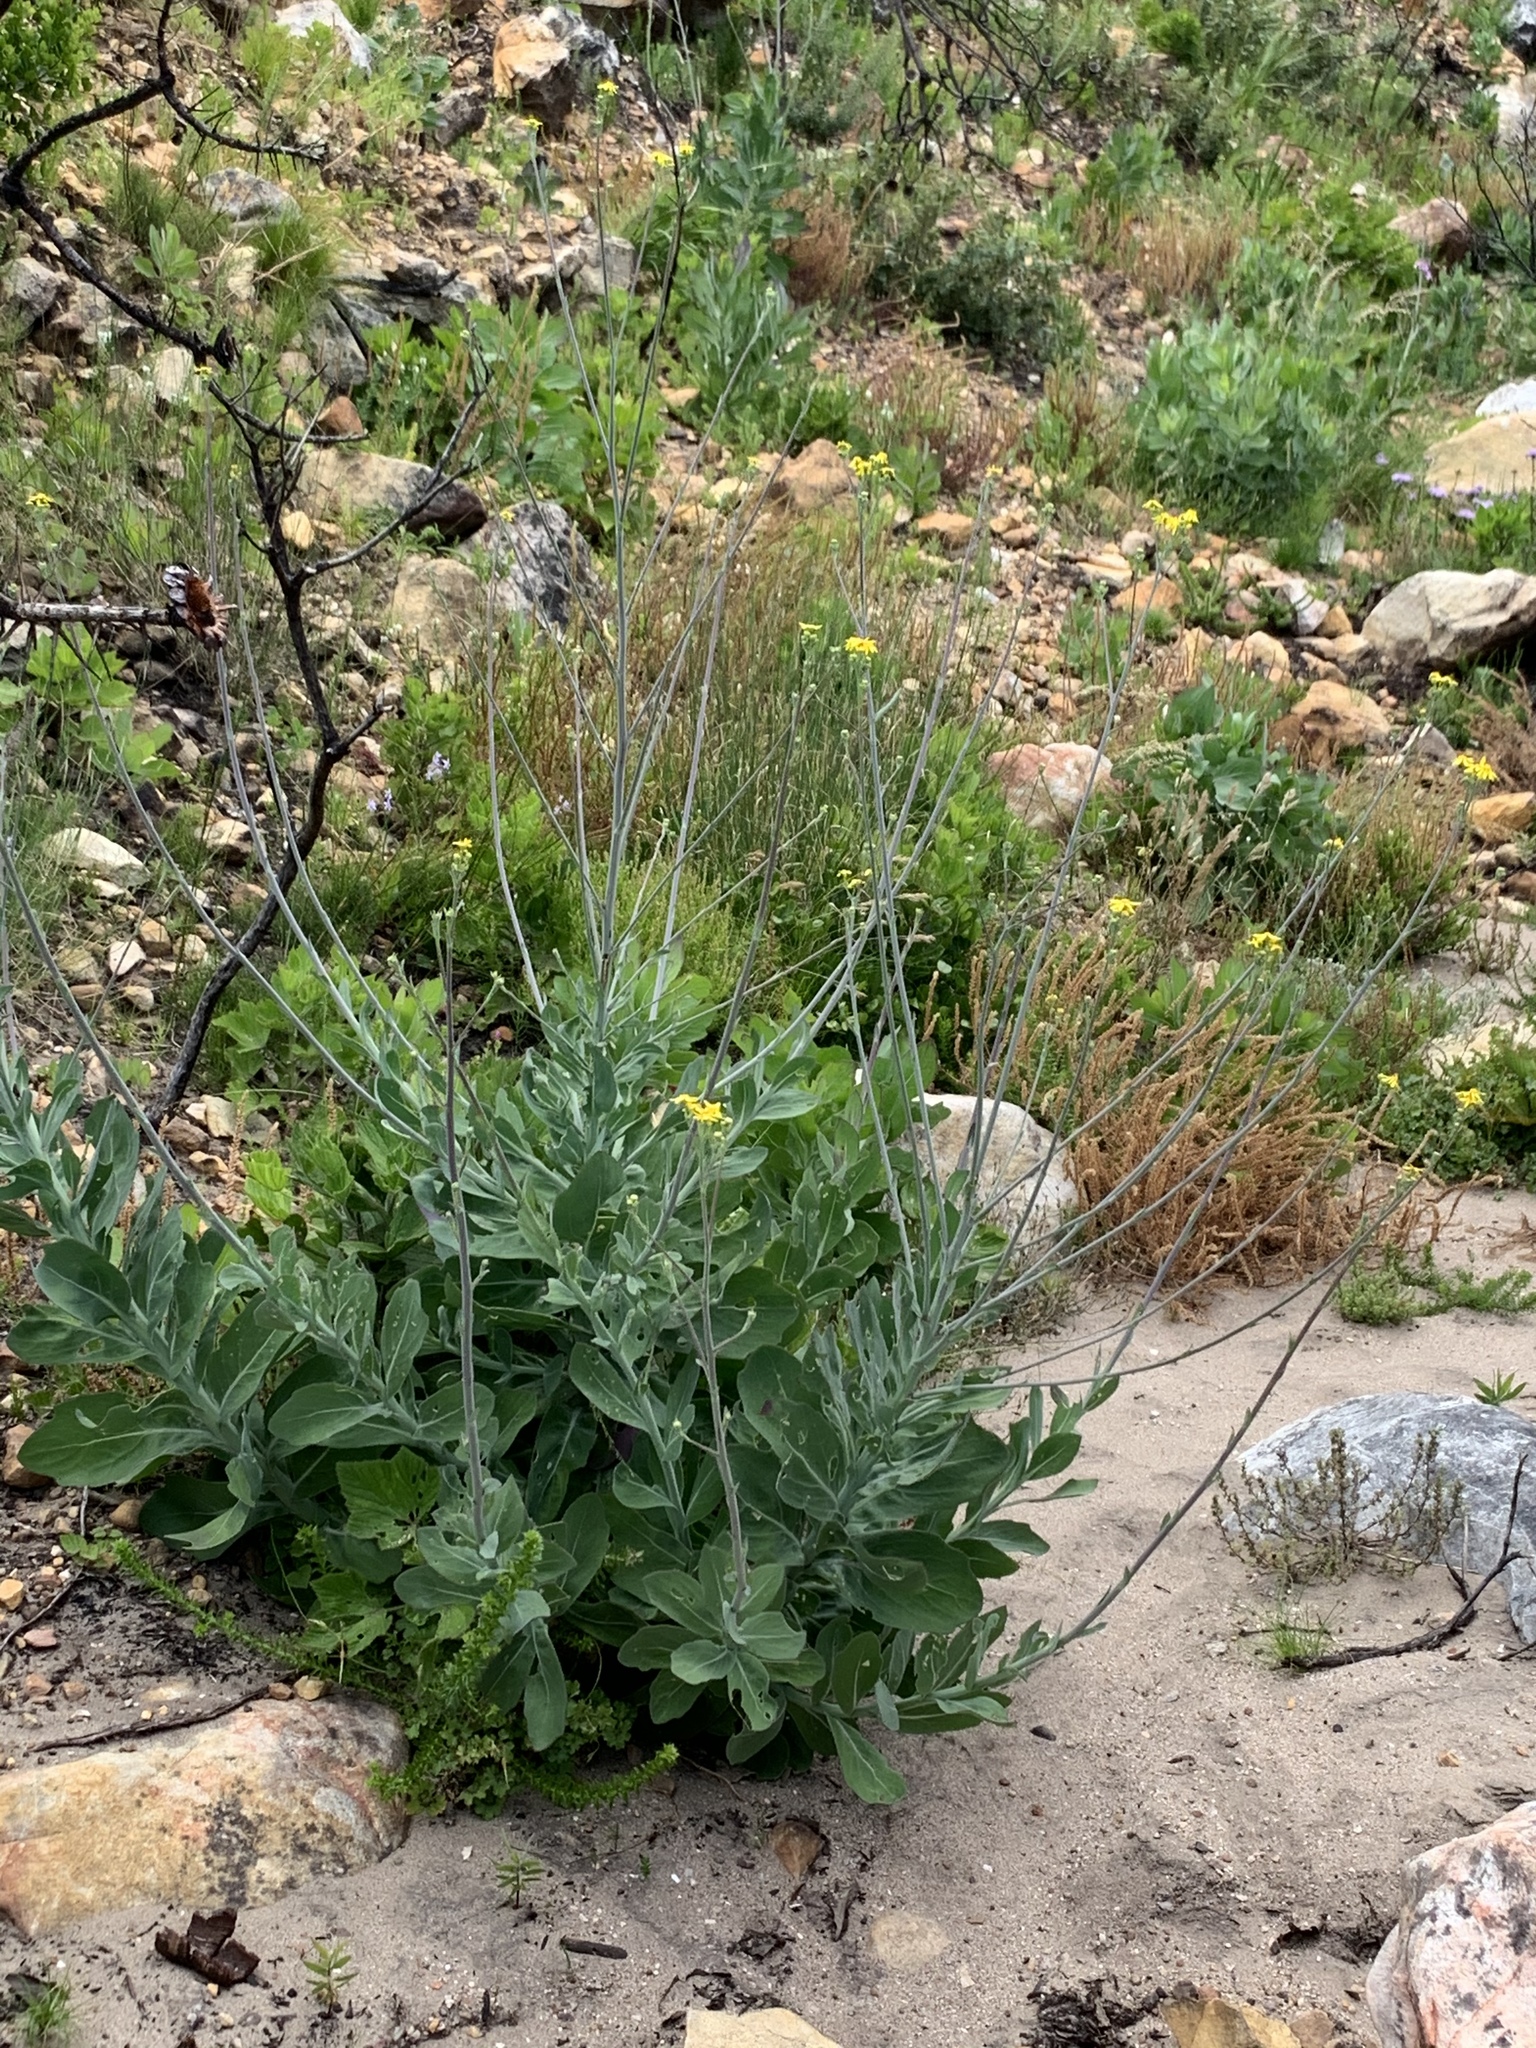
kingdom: Plantae
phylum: Tracheophyta
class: Magnoliopsida
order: Asterales
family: Asteraceae
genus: Othonna
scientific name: Othonna quinquedentata
